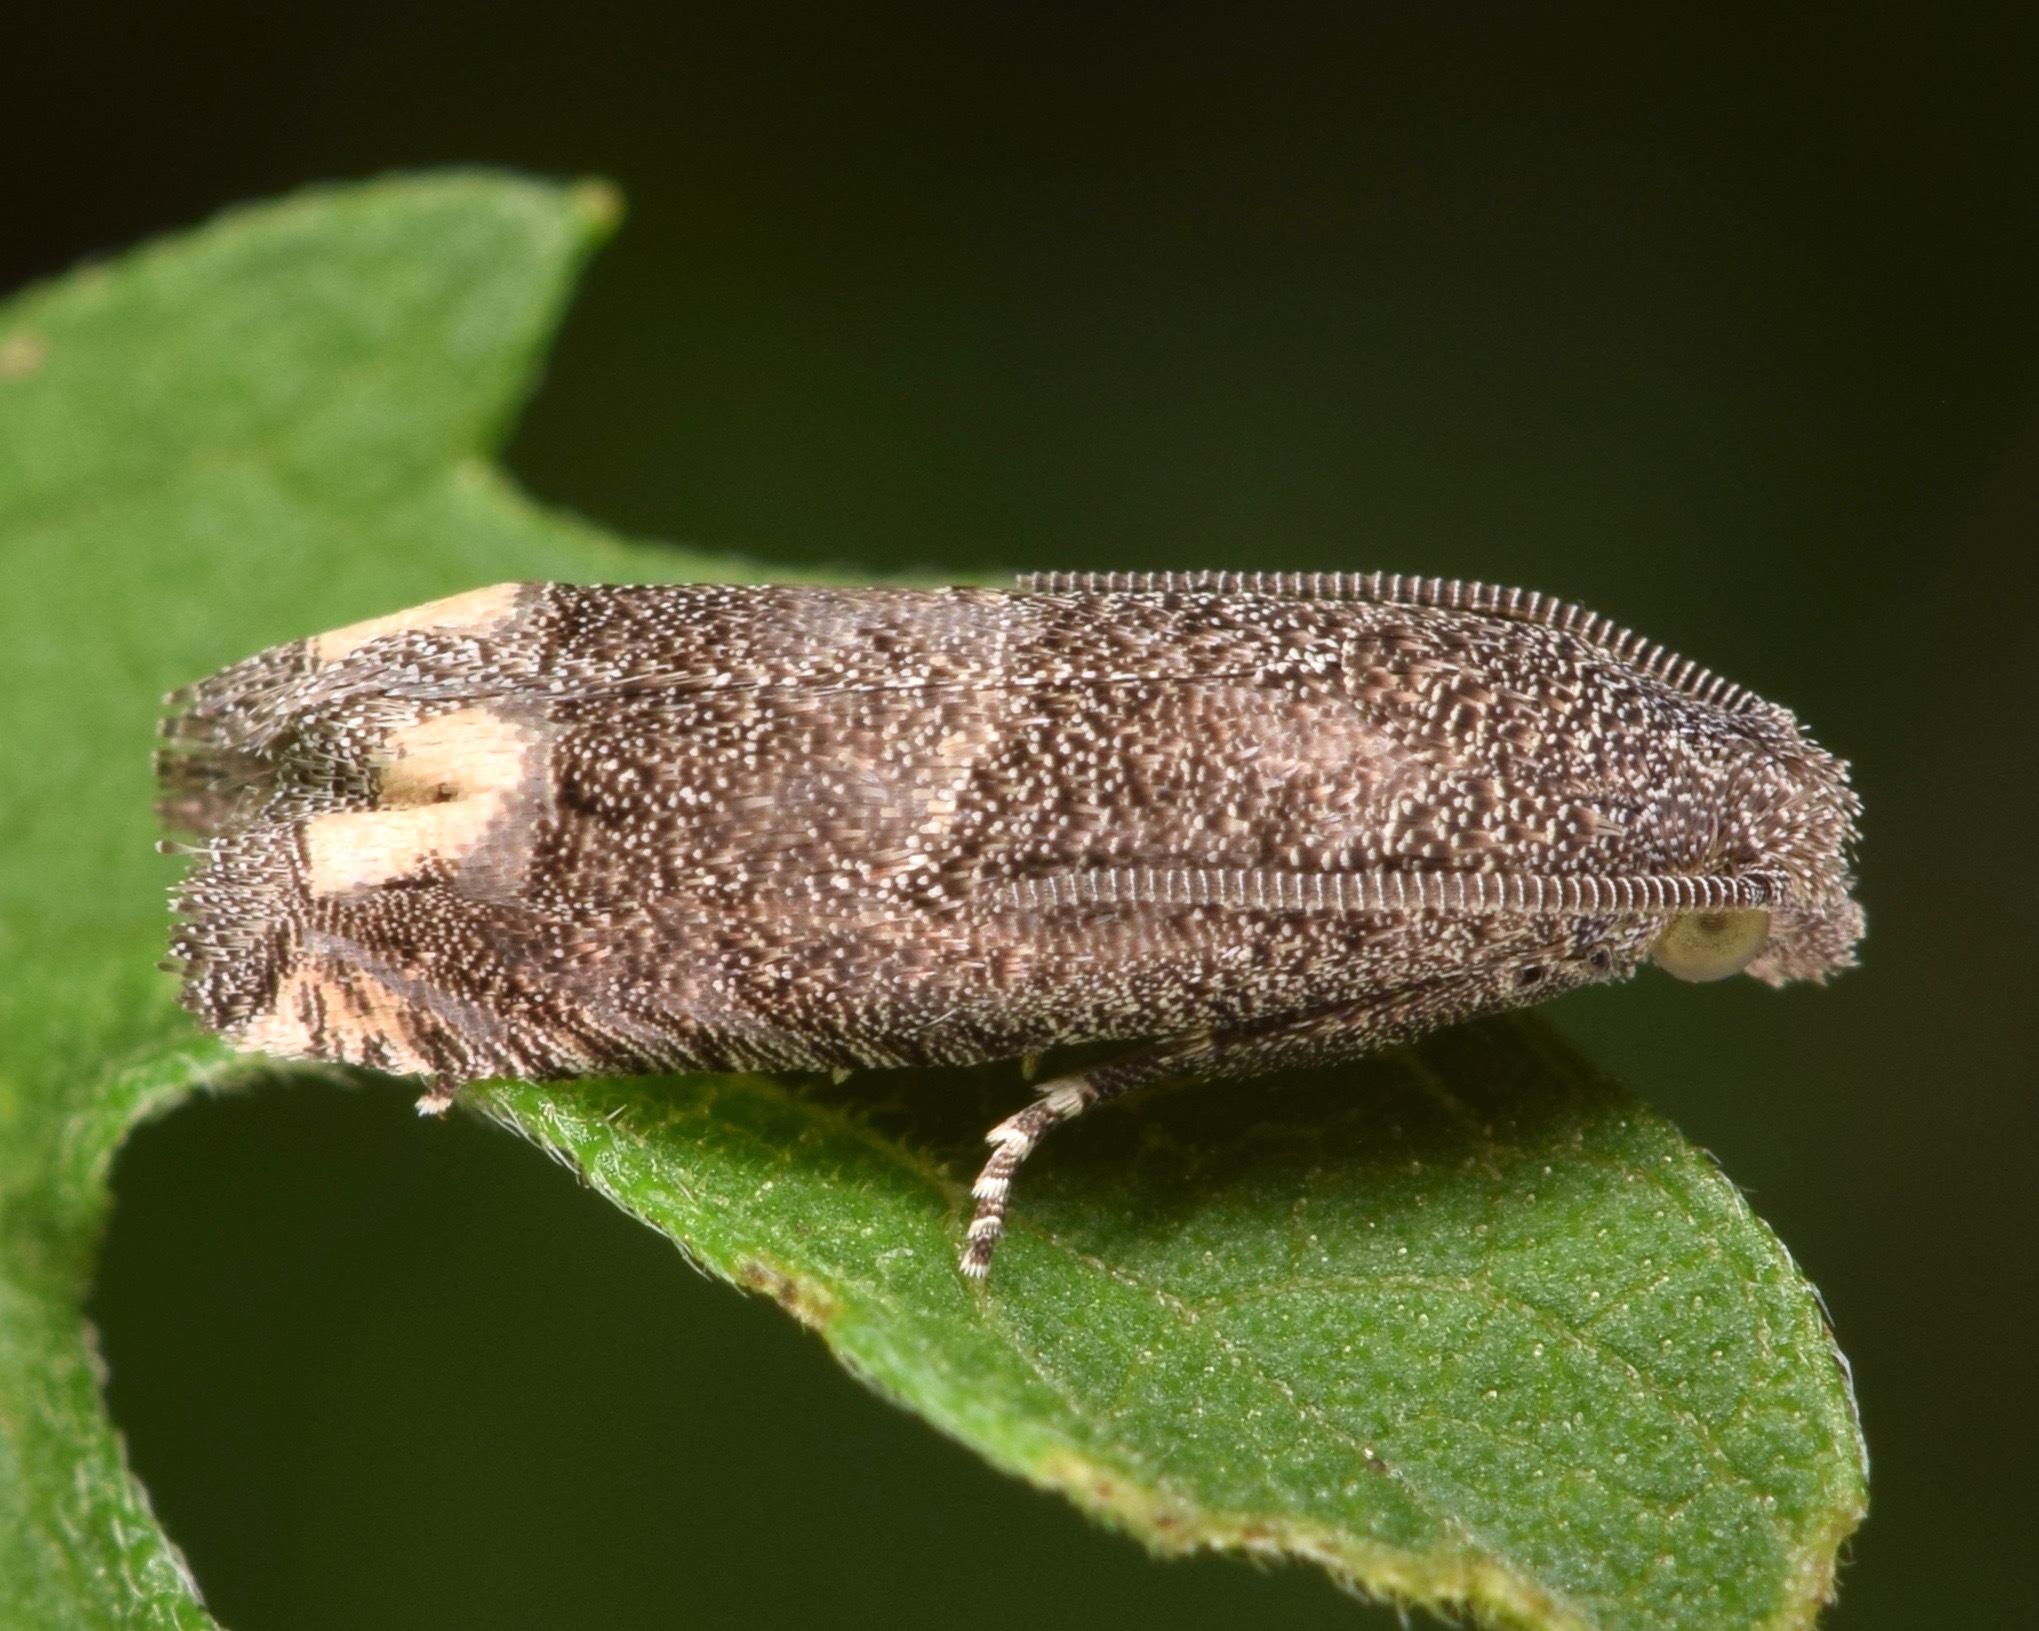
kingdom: Animalia
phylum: Arthropoda
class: Insecta
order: Lepidoptera
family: Tortricidae
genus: Epiblema
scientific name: Epiblema strenuana
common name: Ragweed borer moth
